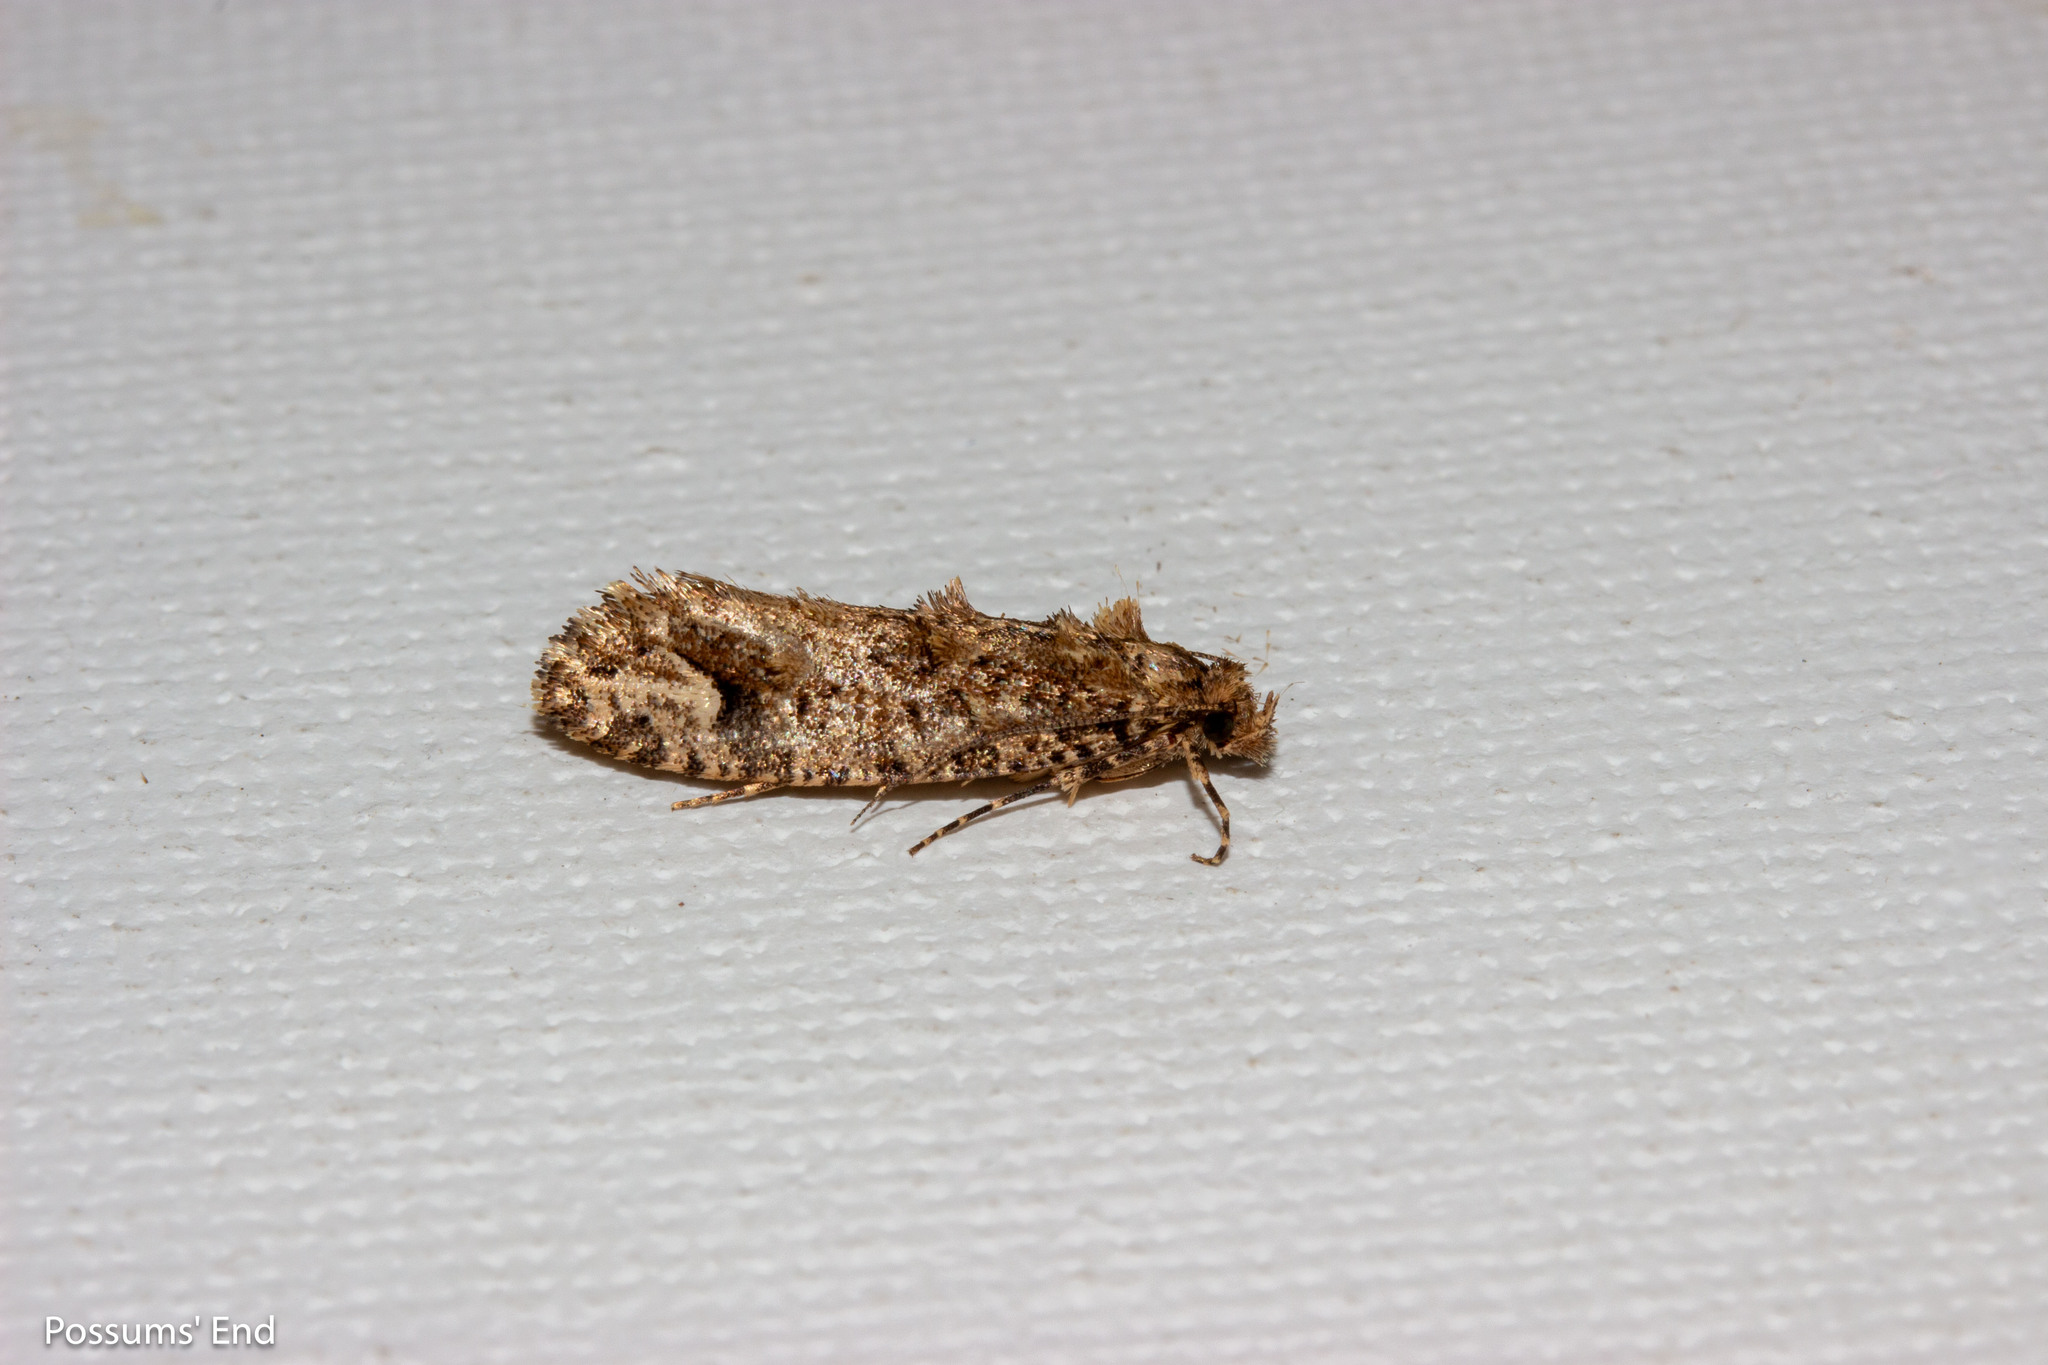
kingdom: Animalia
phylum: Arthropoda
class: Insecta
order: Lepidoptera
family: Tineidae
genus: Lysiphragma
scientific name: Lysiphragma epixyla
